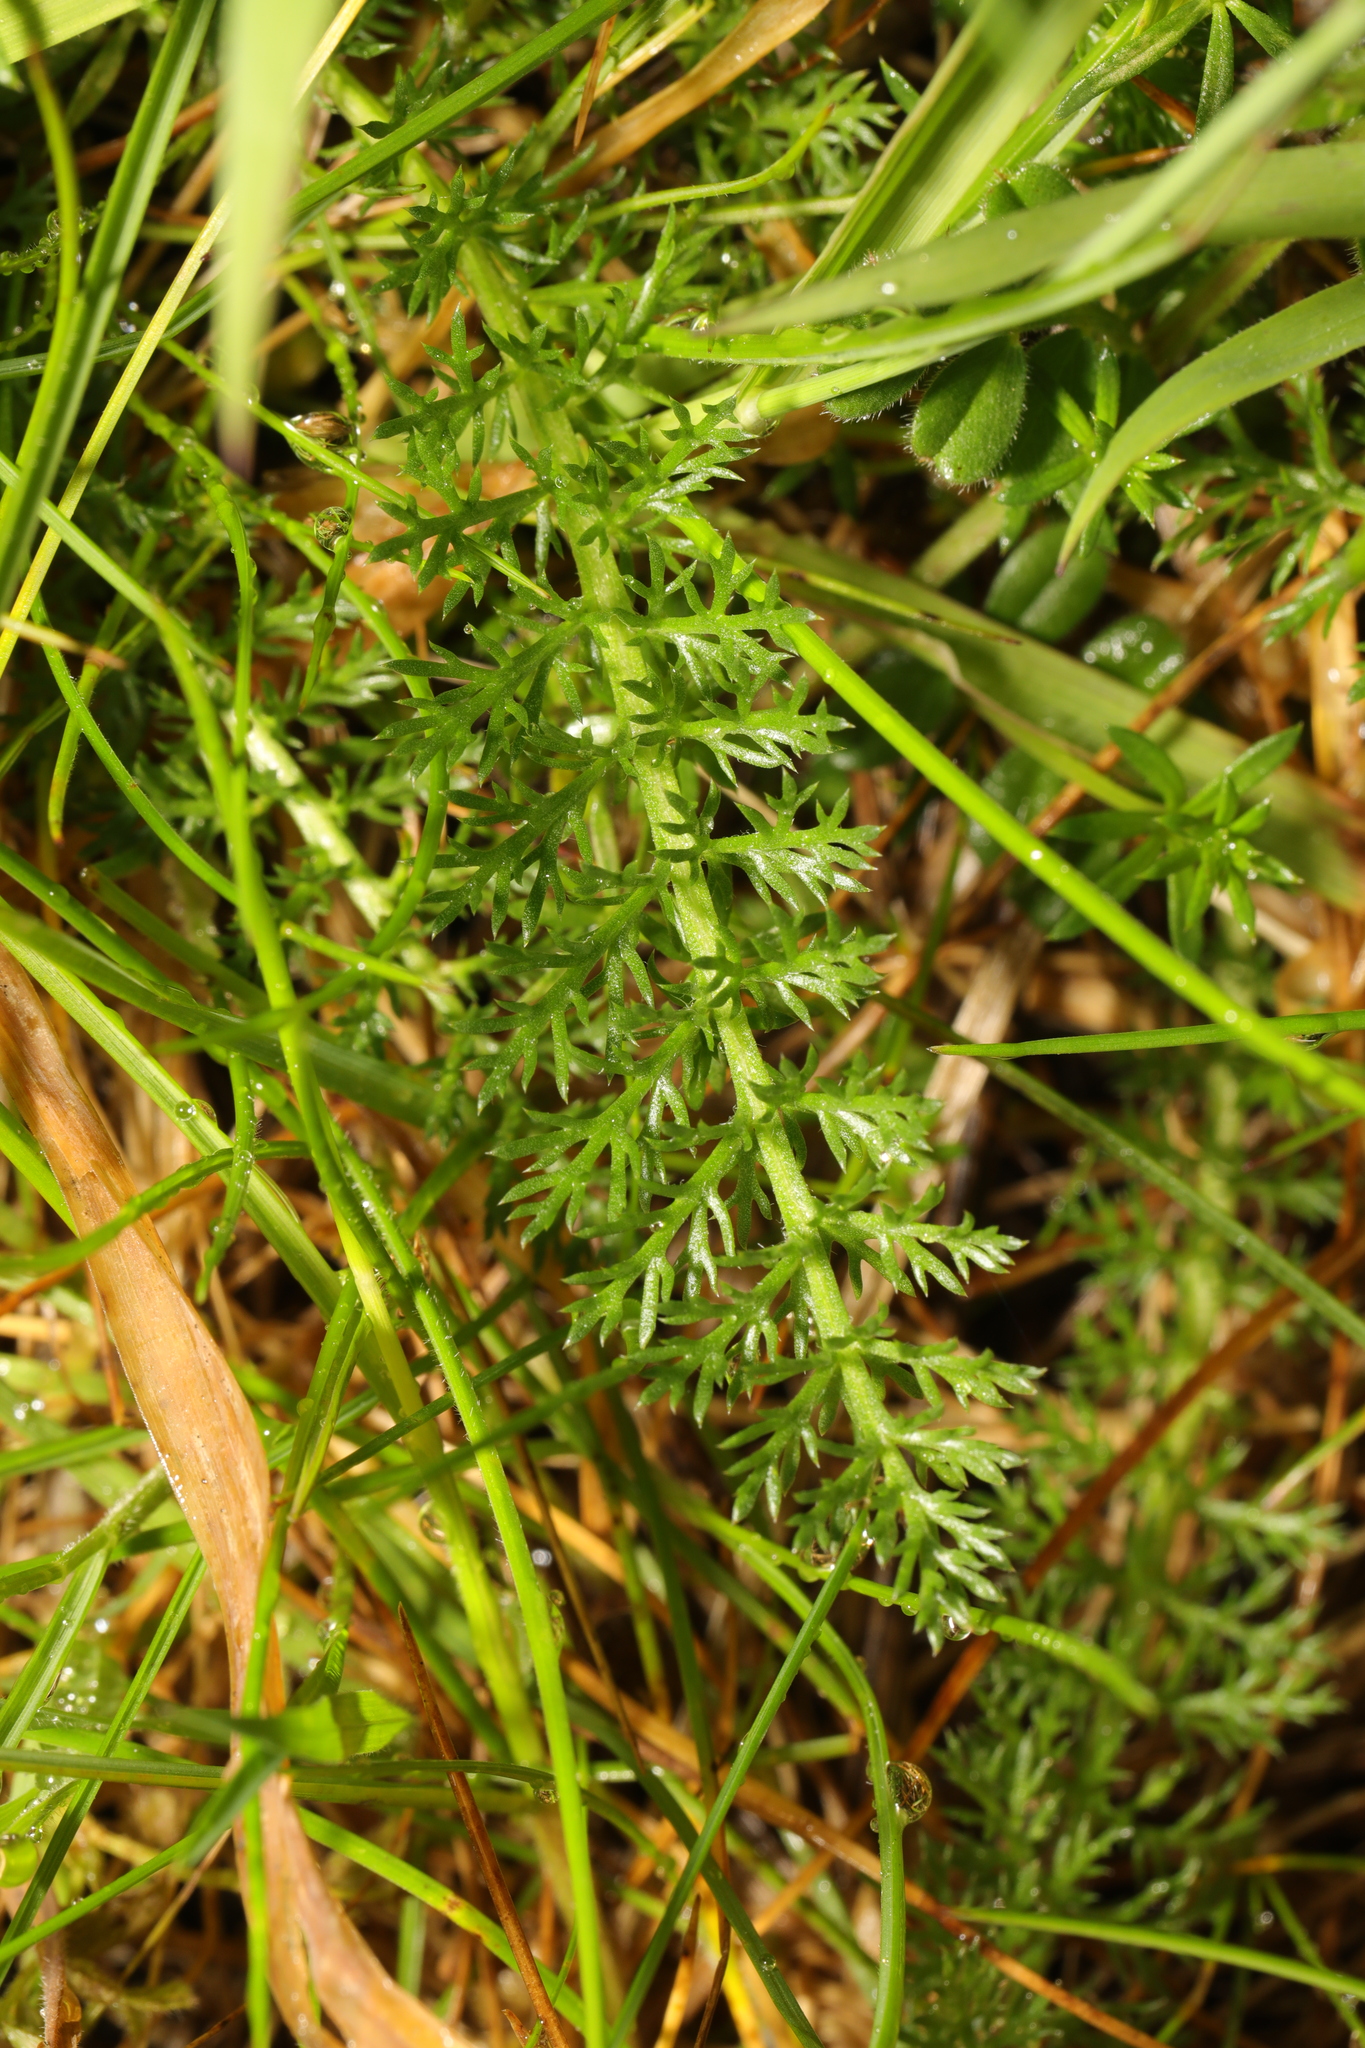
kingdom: Plantae
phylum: Tracheophyta
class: Magnoliopsida
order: Asterales
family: Asteraceae
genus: Achillea
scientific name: Achillea millefolium
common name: Yarrow
